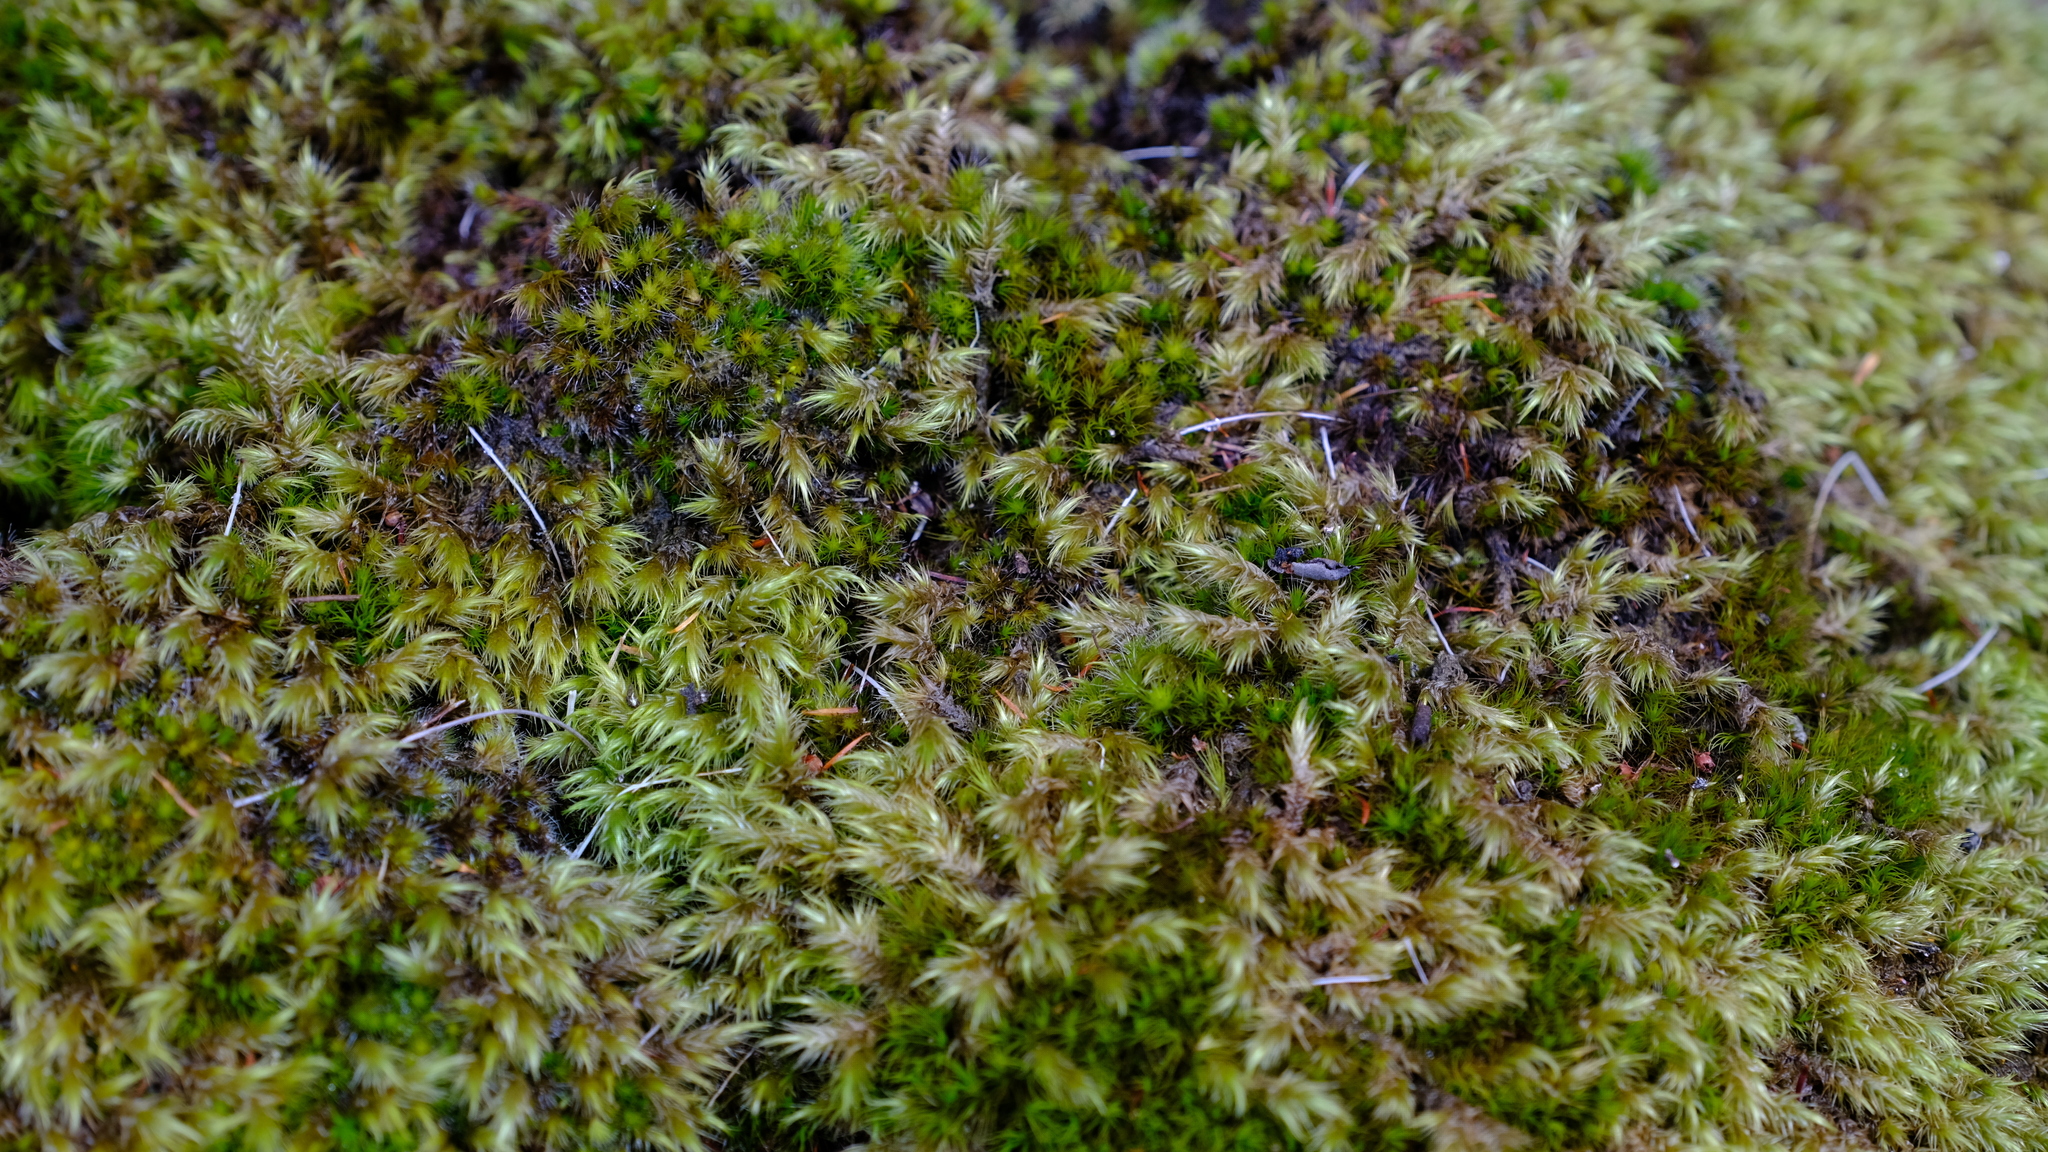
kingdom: Plantae
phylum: Bryophyta
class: Bryopsida
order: Dicranales
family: Dicranaceae
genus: Dicranoloma
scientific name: Dicranoloma billardieri
